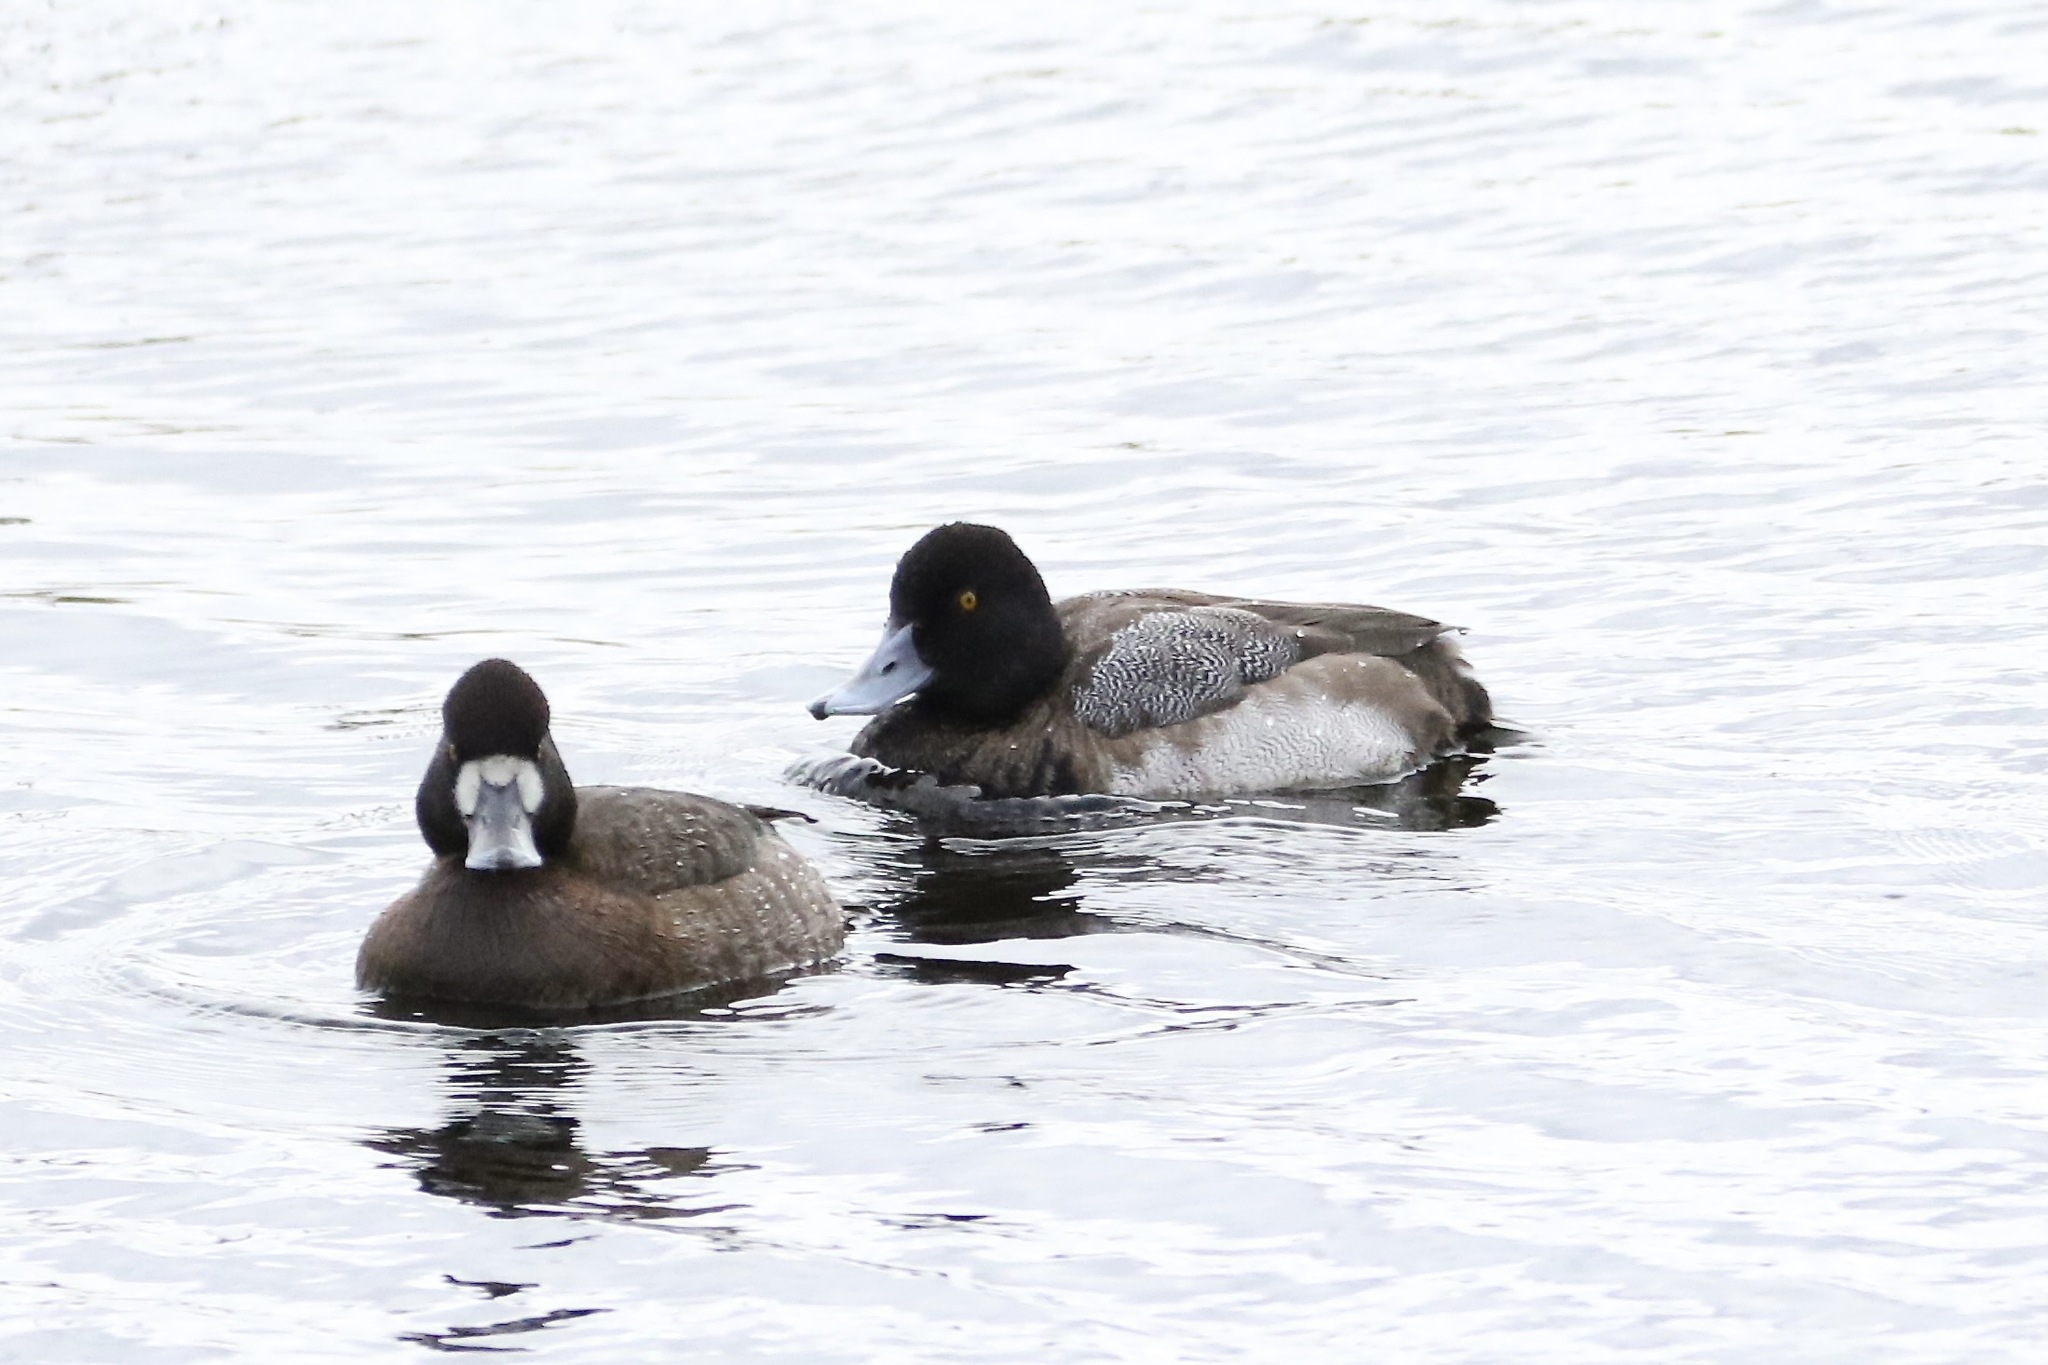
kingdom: Animalia
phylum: Chordata
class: Aves
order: Anseriformes
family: Anatidae
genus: Aythya
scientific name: Aythya affinis
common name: Lesser scaup
